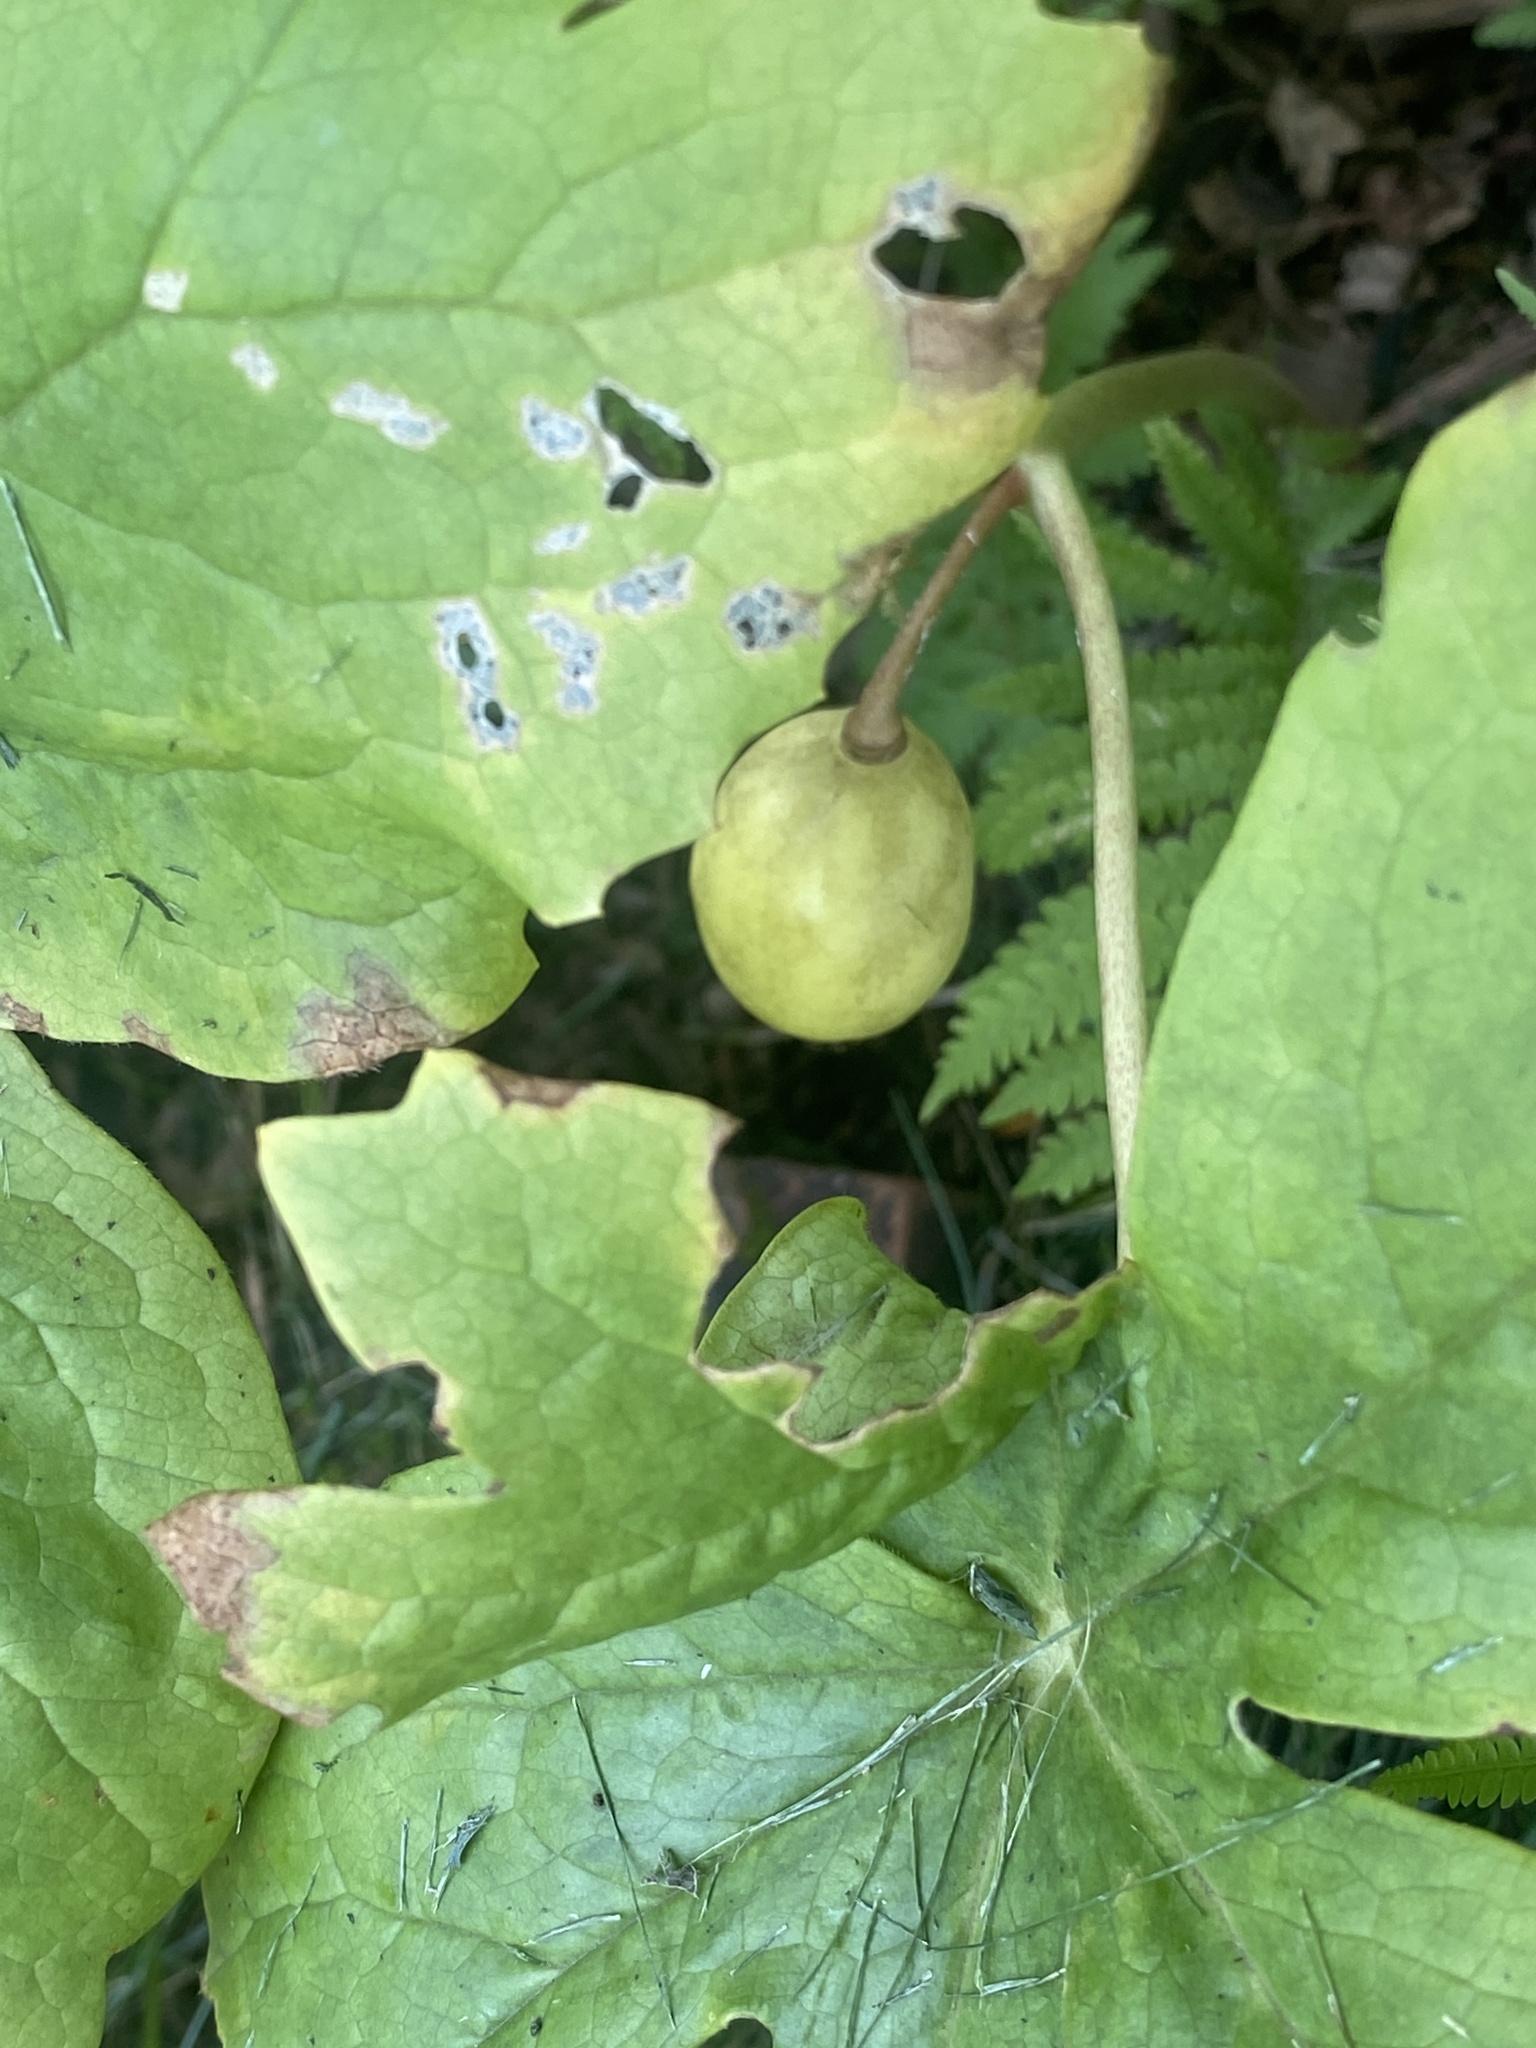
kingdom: Plantae
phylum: Tracheophyta
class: Magnoliopsida
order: Ranunculales
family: Berberidaceae
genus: Podophyllum
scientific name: Podophyllum peltatum
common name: Wild mandrake
